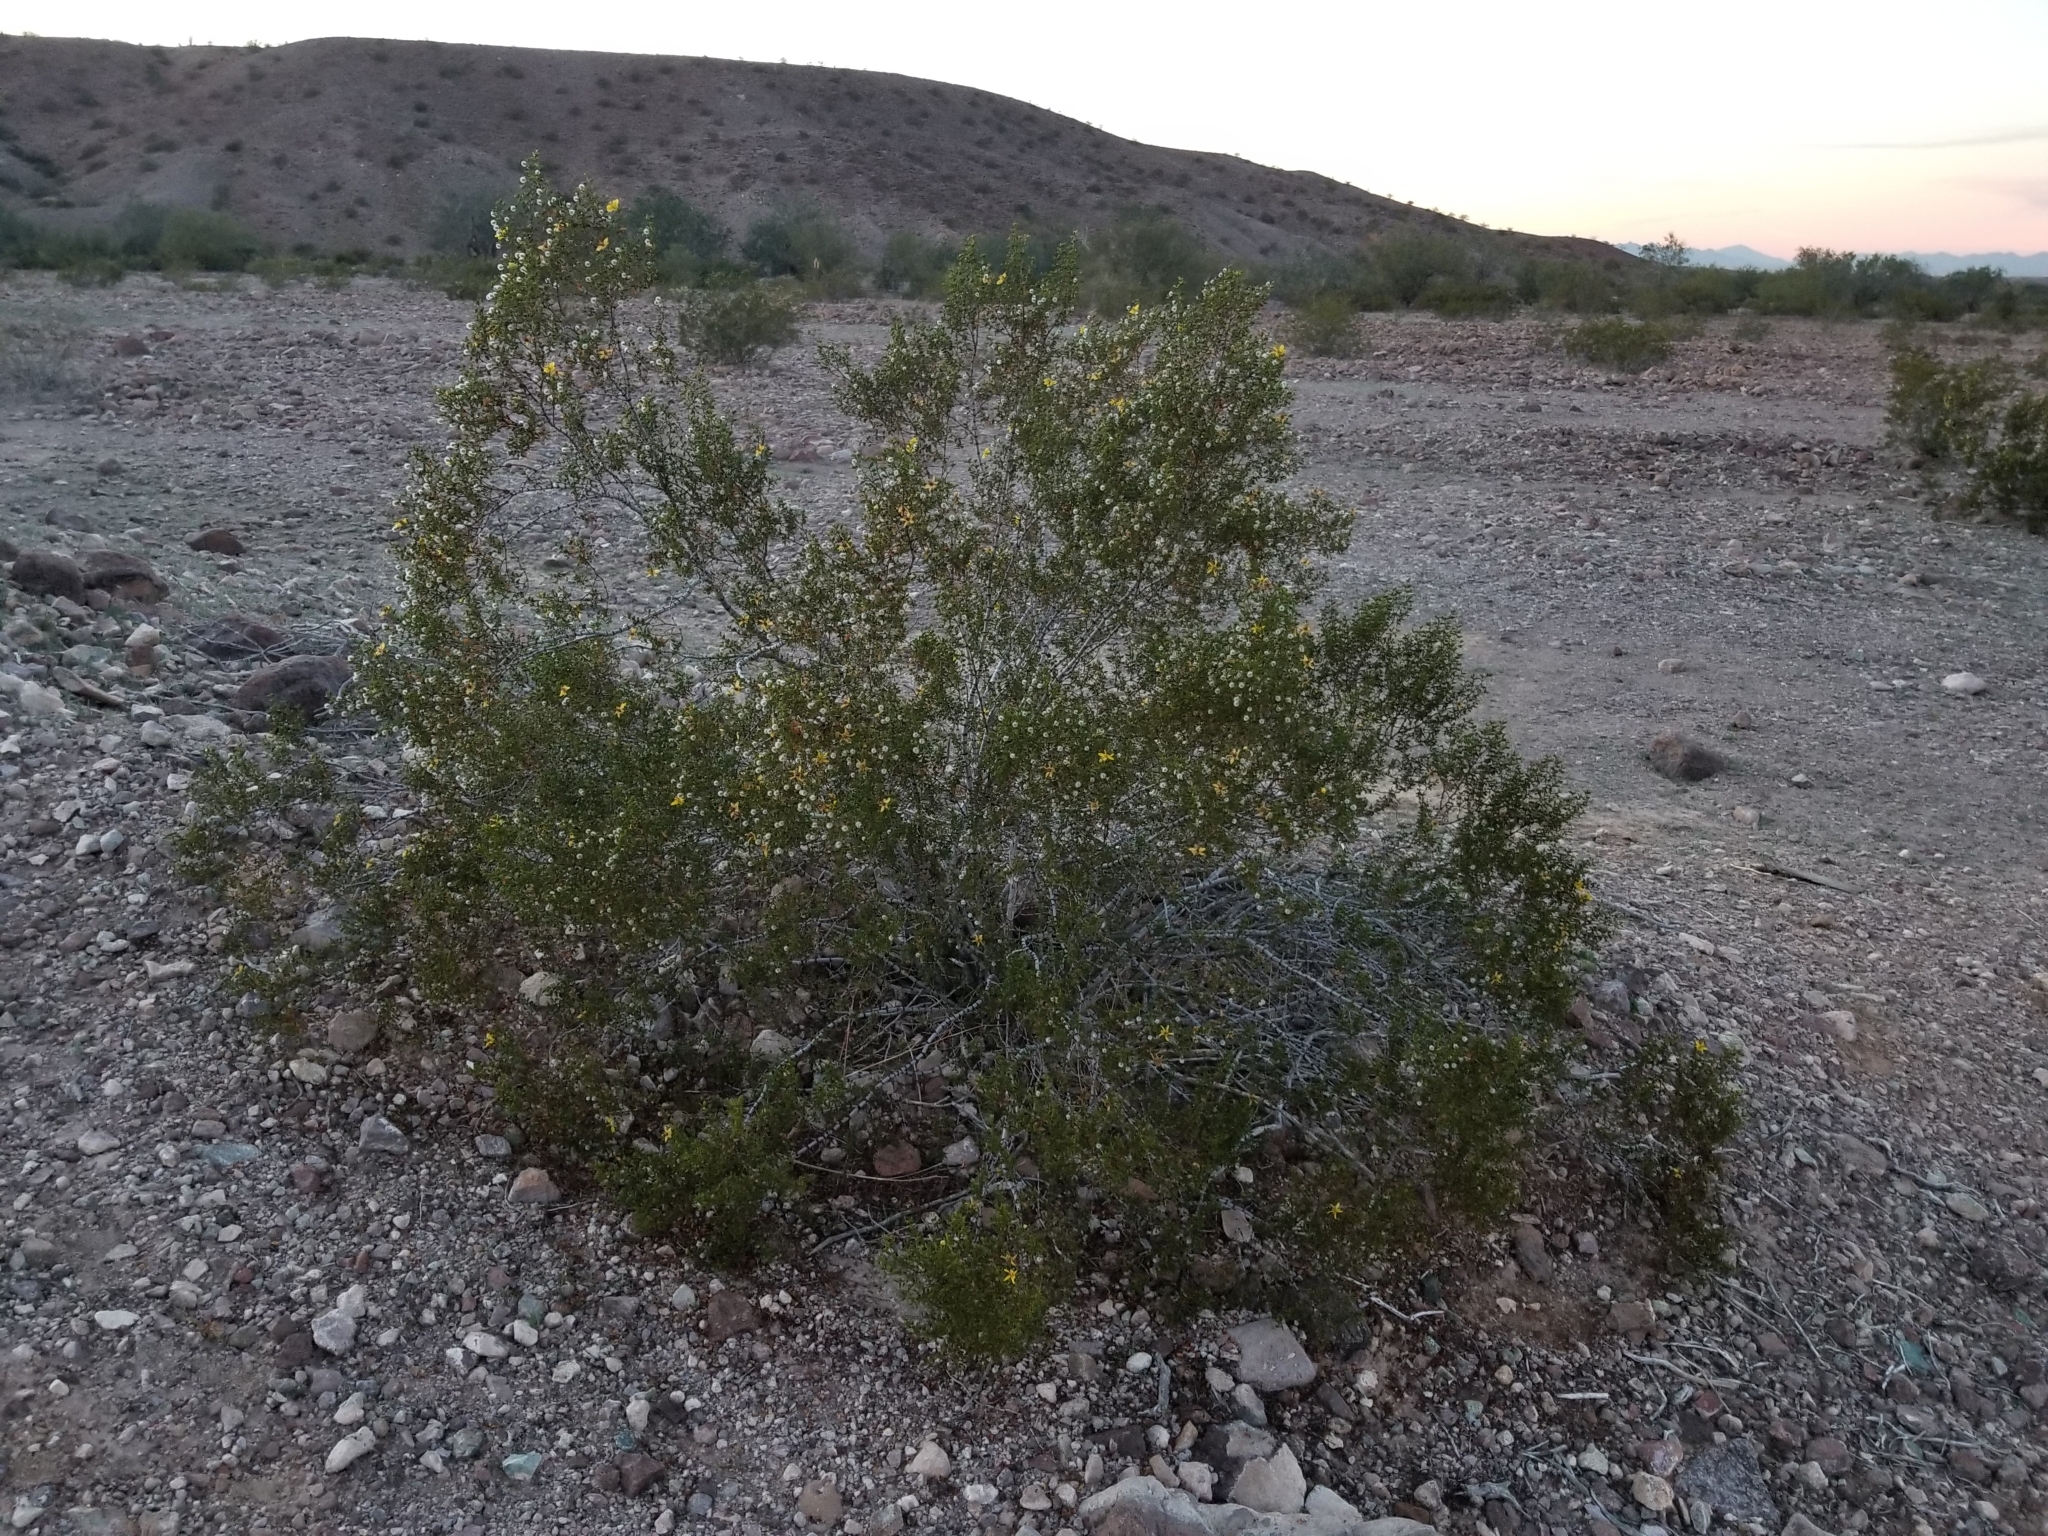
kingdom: Plantae
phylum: Tracheophyta
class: Magnoliopsida
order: Zygophyllales
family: Zygophyllaceae
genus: Larrea
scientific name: Larrea tridentata
